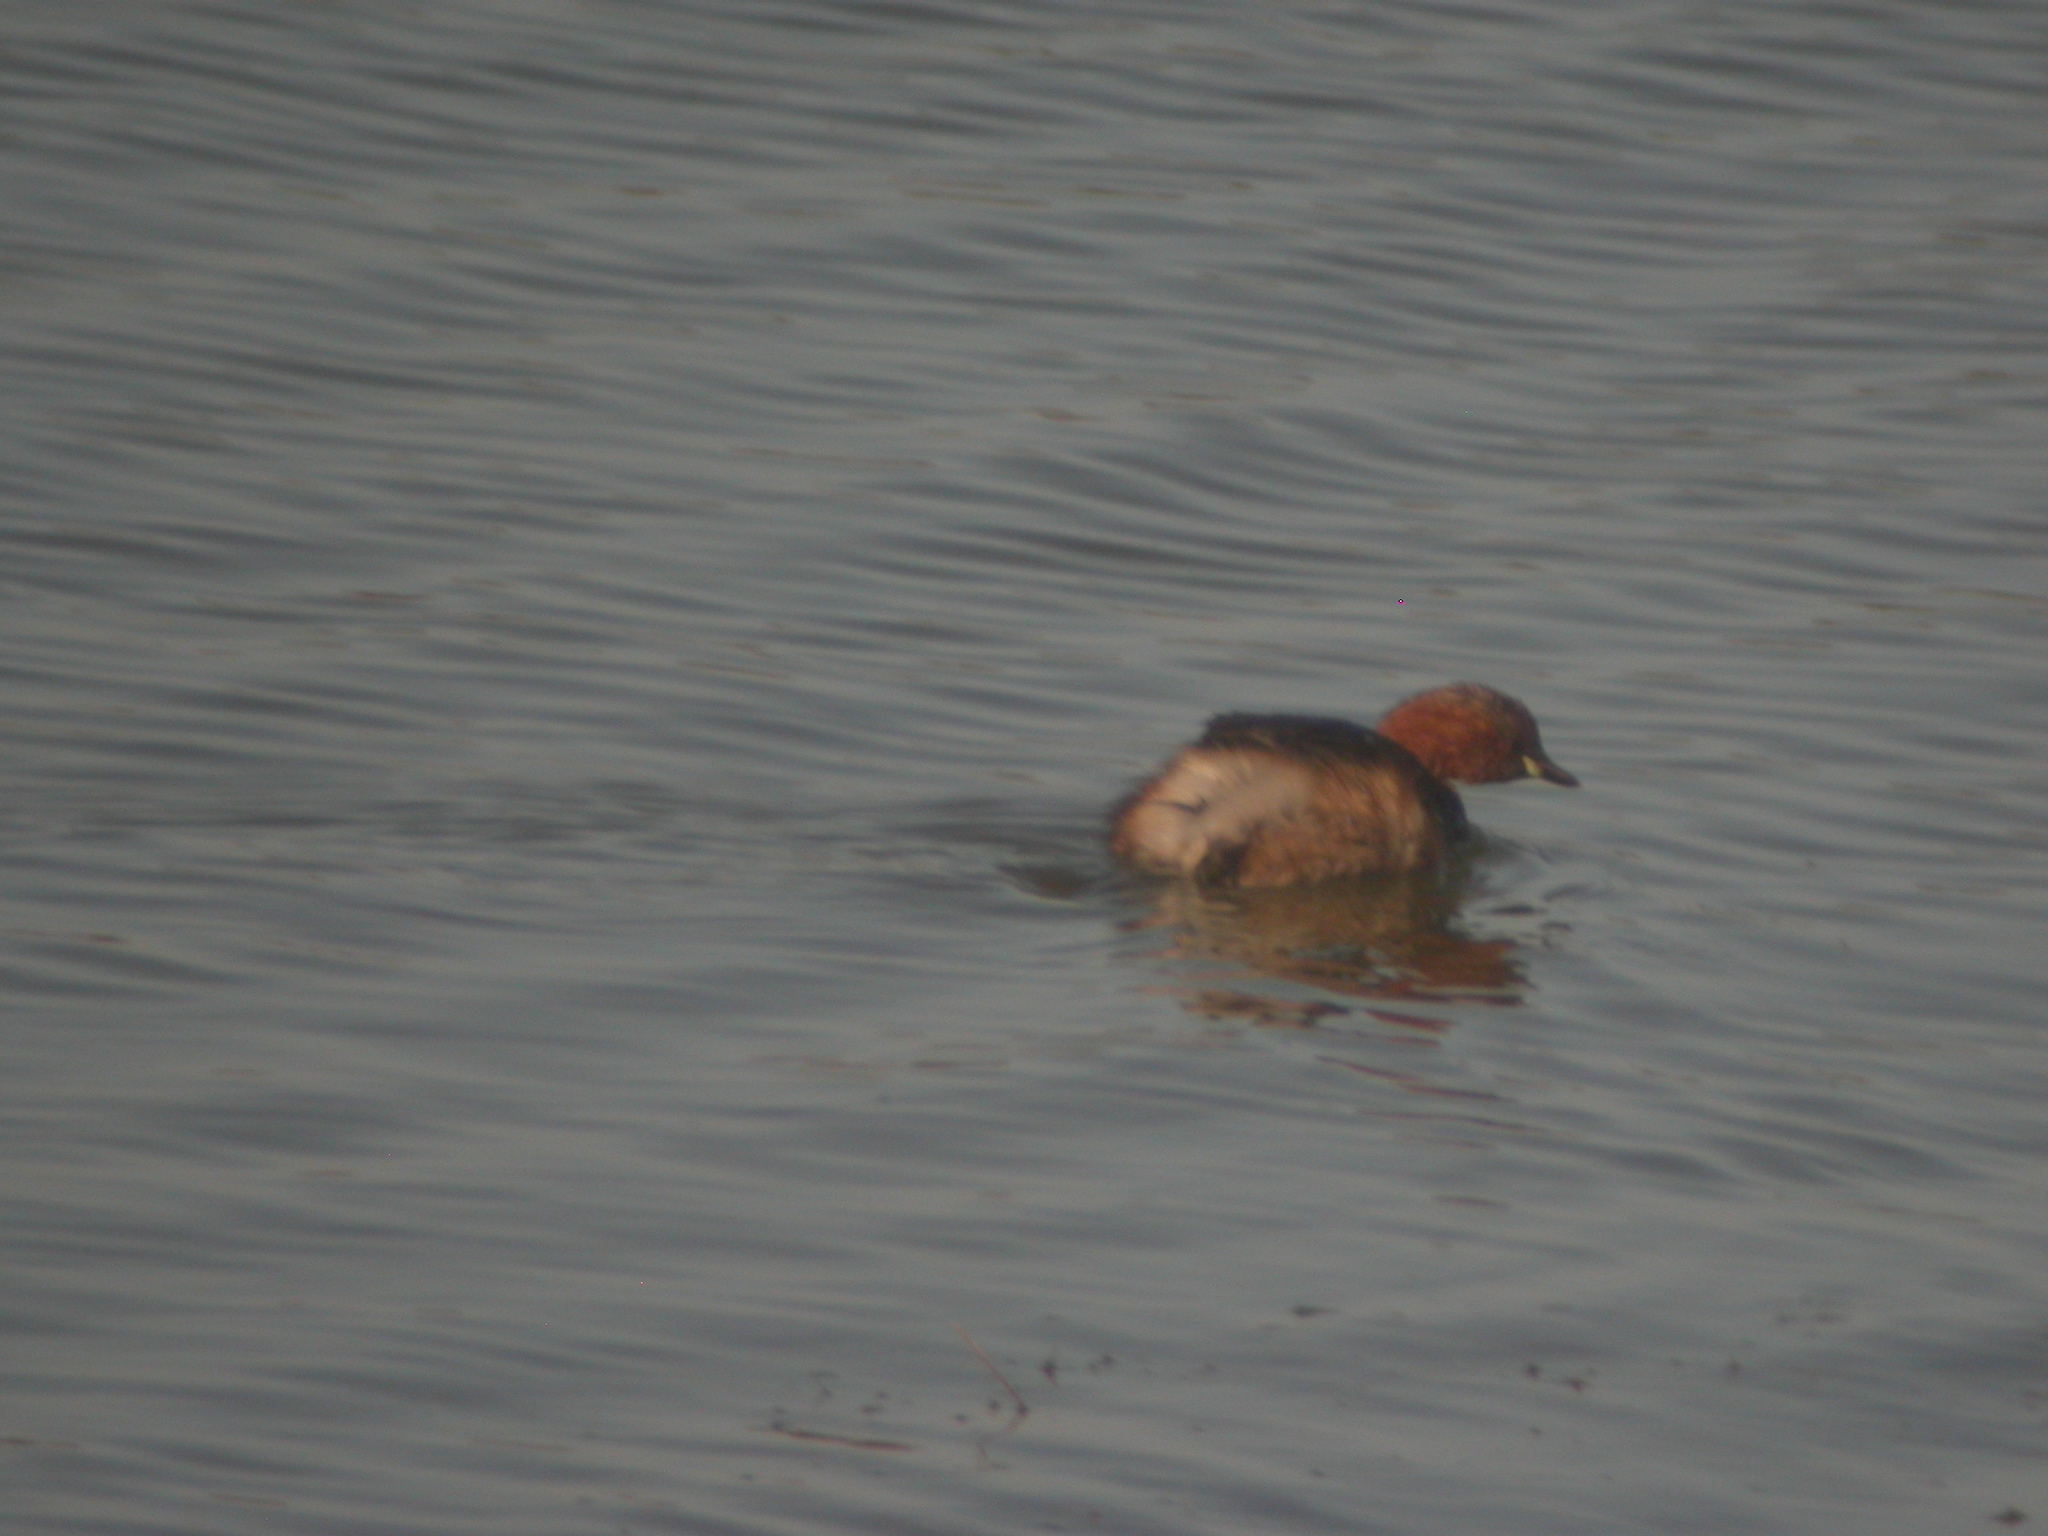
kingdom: Animalia
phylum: Chordata
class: Aves
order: Podicipediformes
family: Podicipedidae
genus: Tachybaptus
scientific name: Tachybaptus ruficollis
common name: Little grebe
